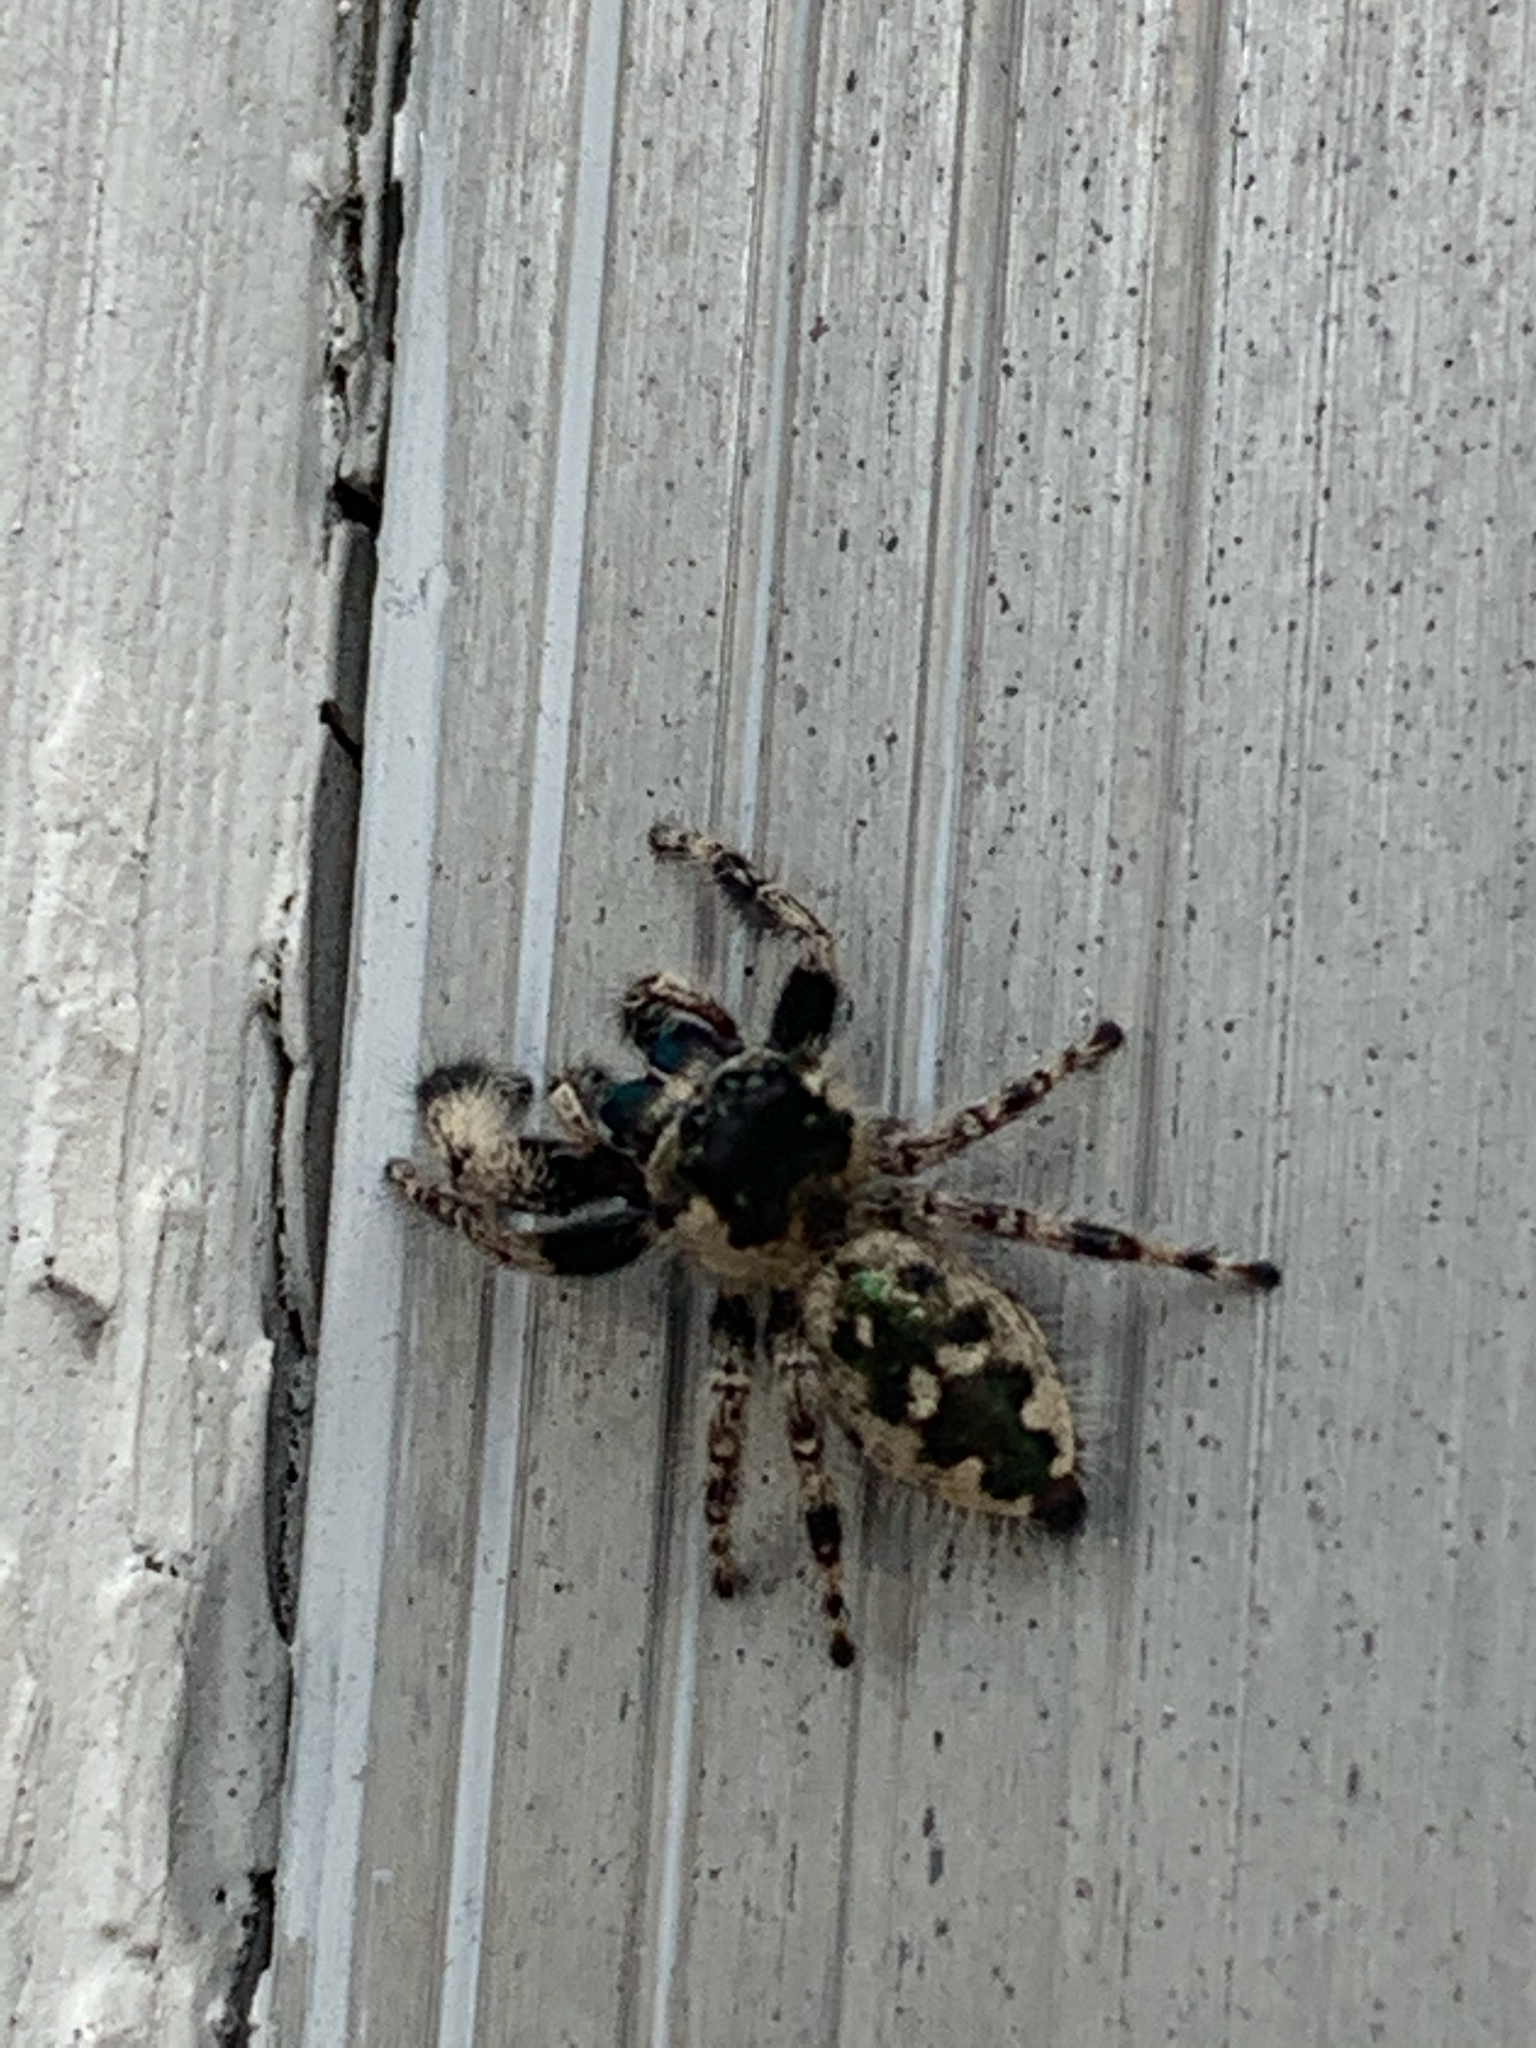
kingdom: Animalia
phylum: Arthropoda
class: Arachnida
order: Araneae
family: Salticidae
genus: Phidippus
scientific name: Phidippus otiosus
